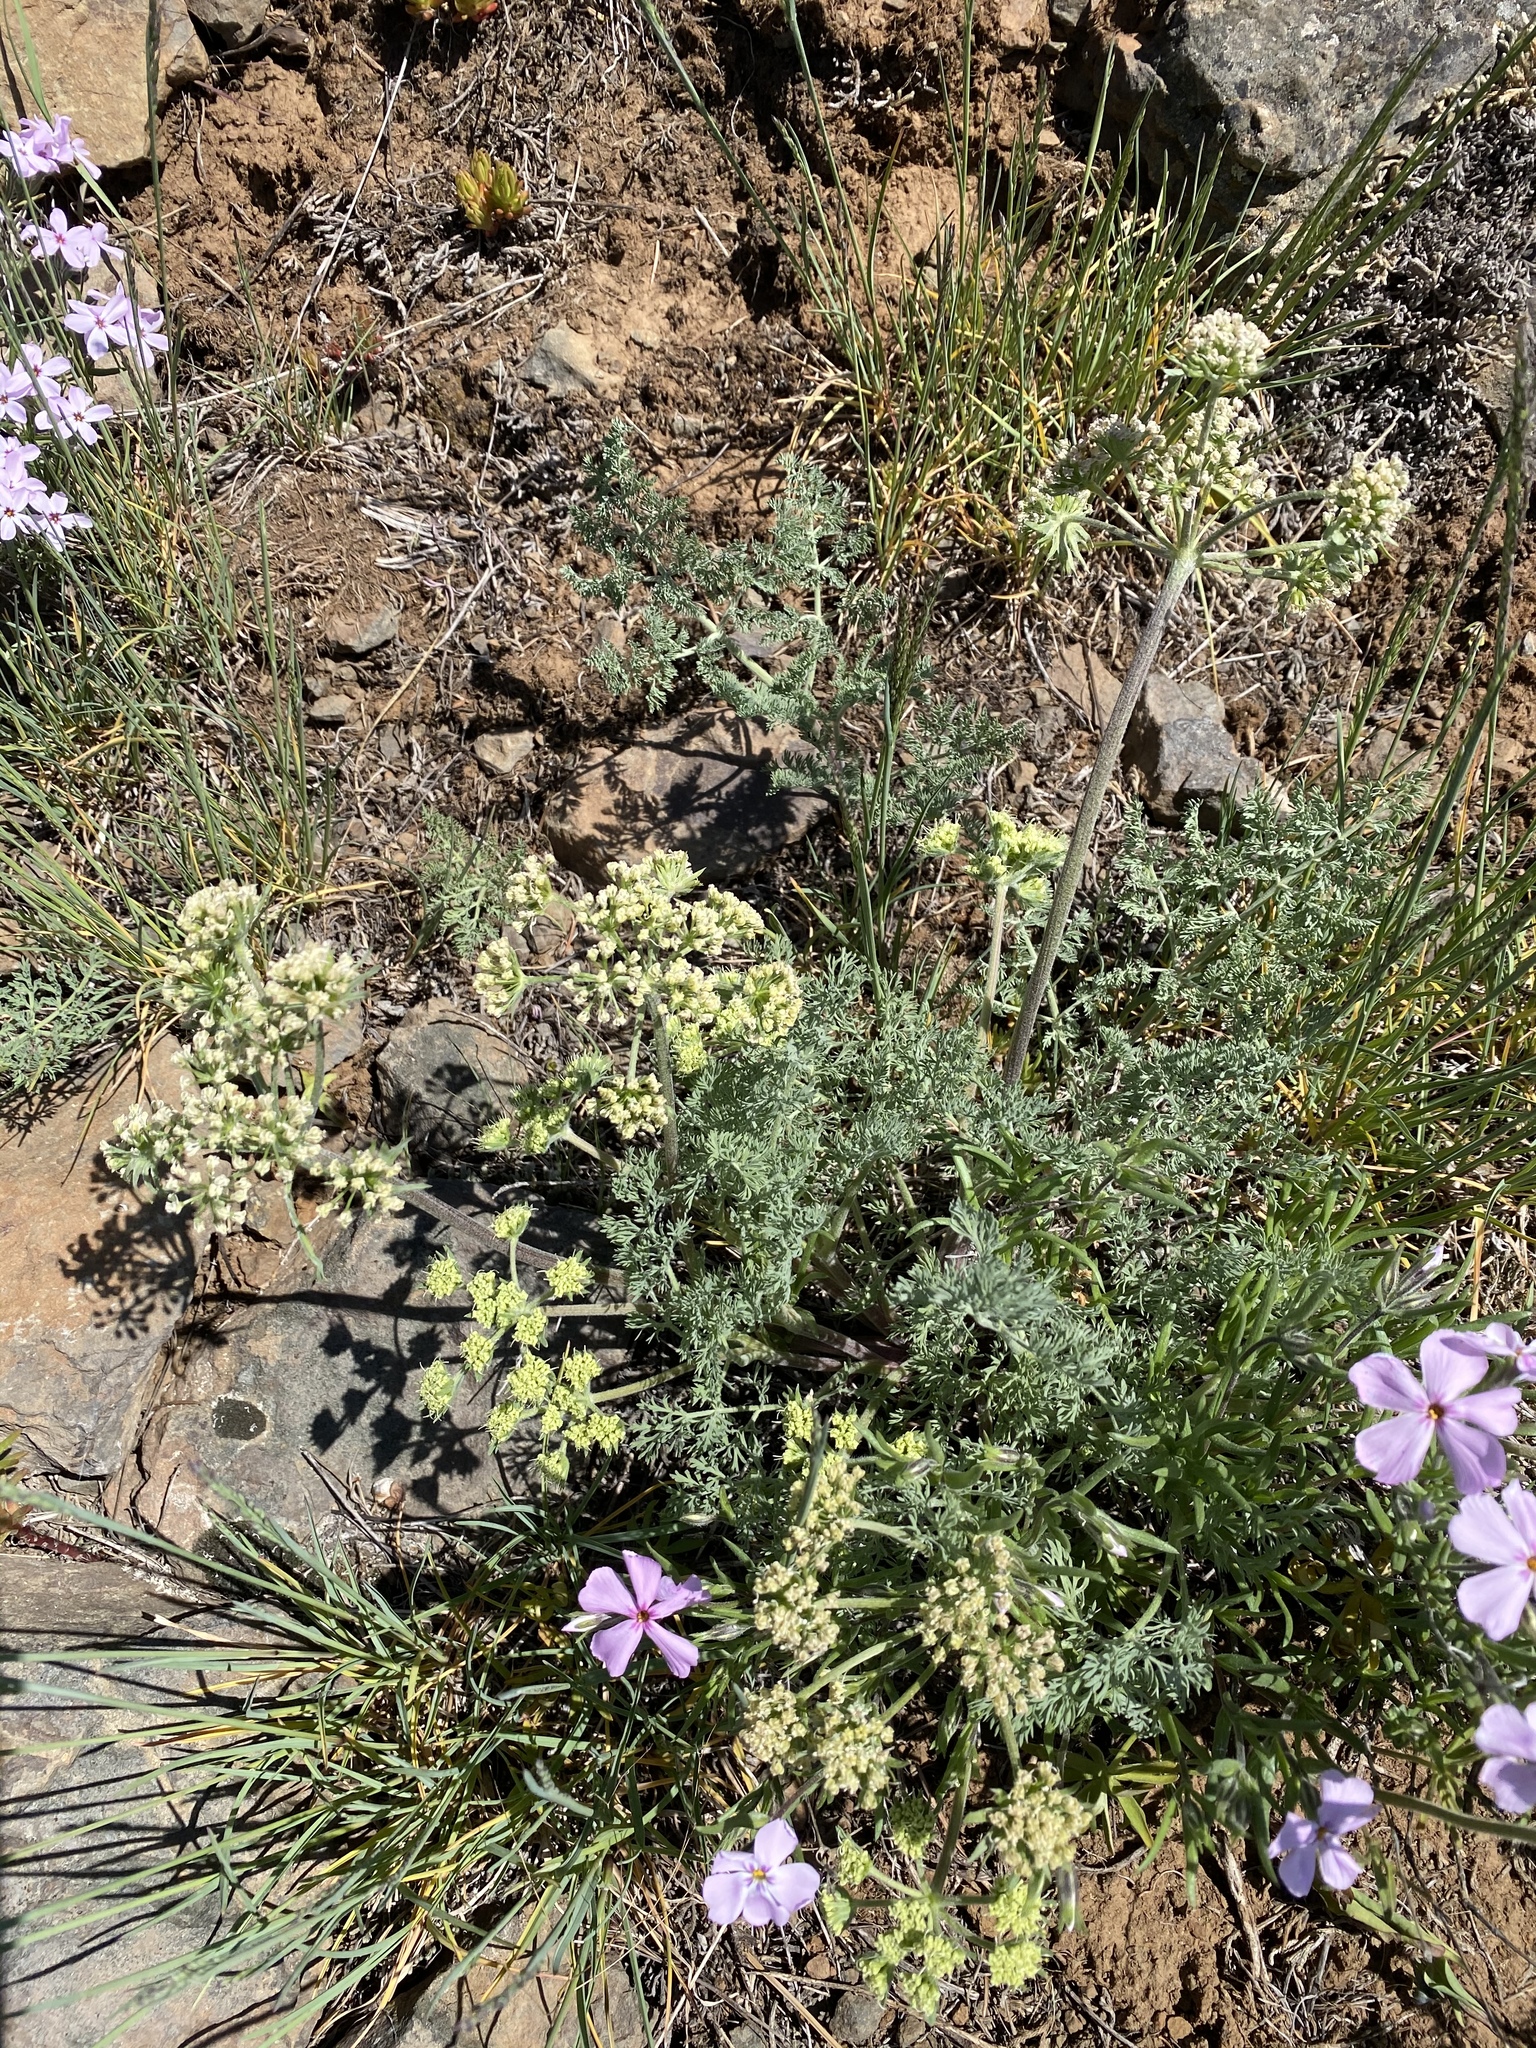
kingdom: Plantae
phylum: Tracheophyta
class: Magnoliopsida
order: Apiales
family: Apiaceae
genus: Lomatium
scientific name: Lomatium macrocarpum
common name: Big-seed biscuitroot
